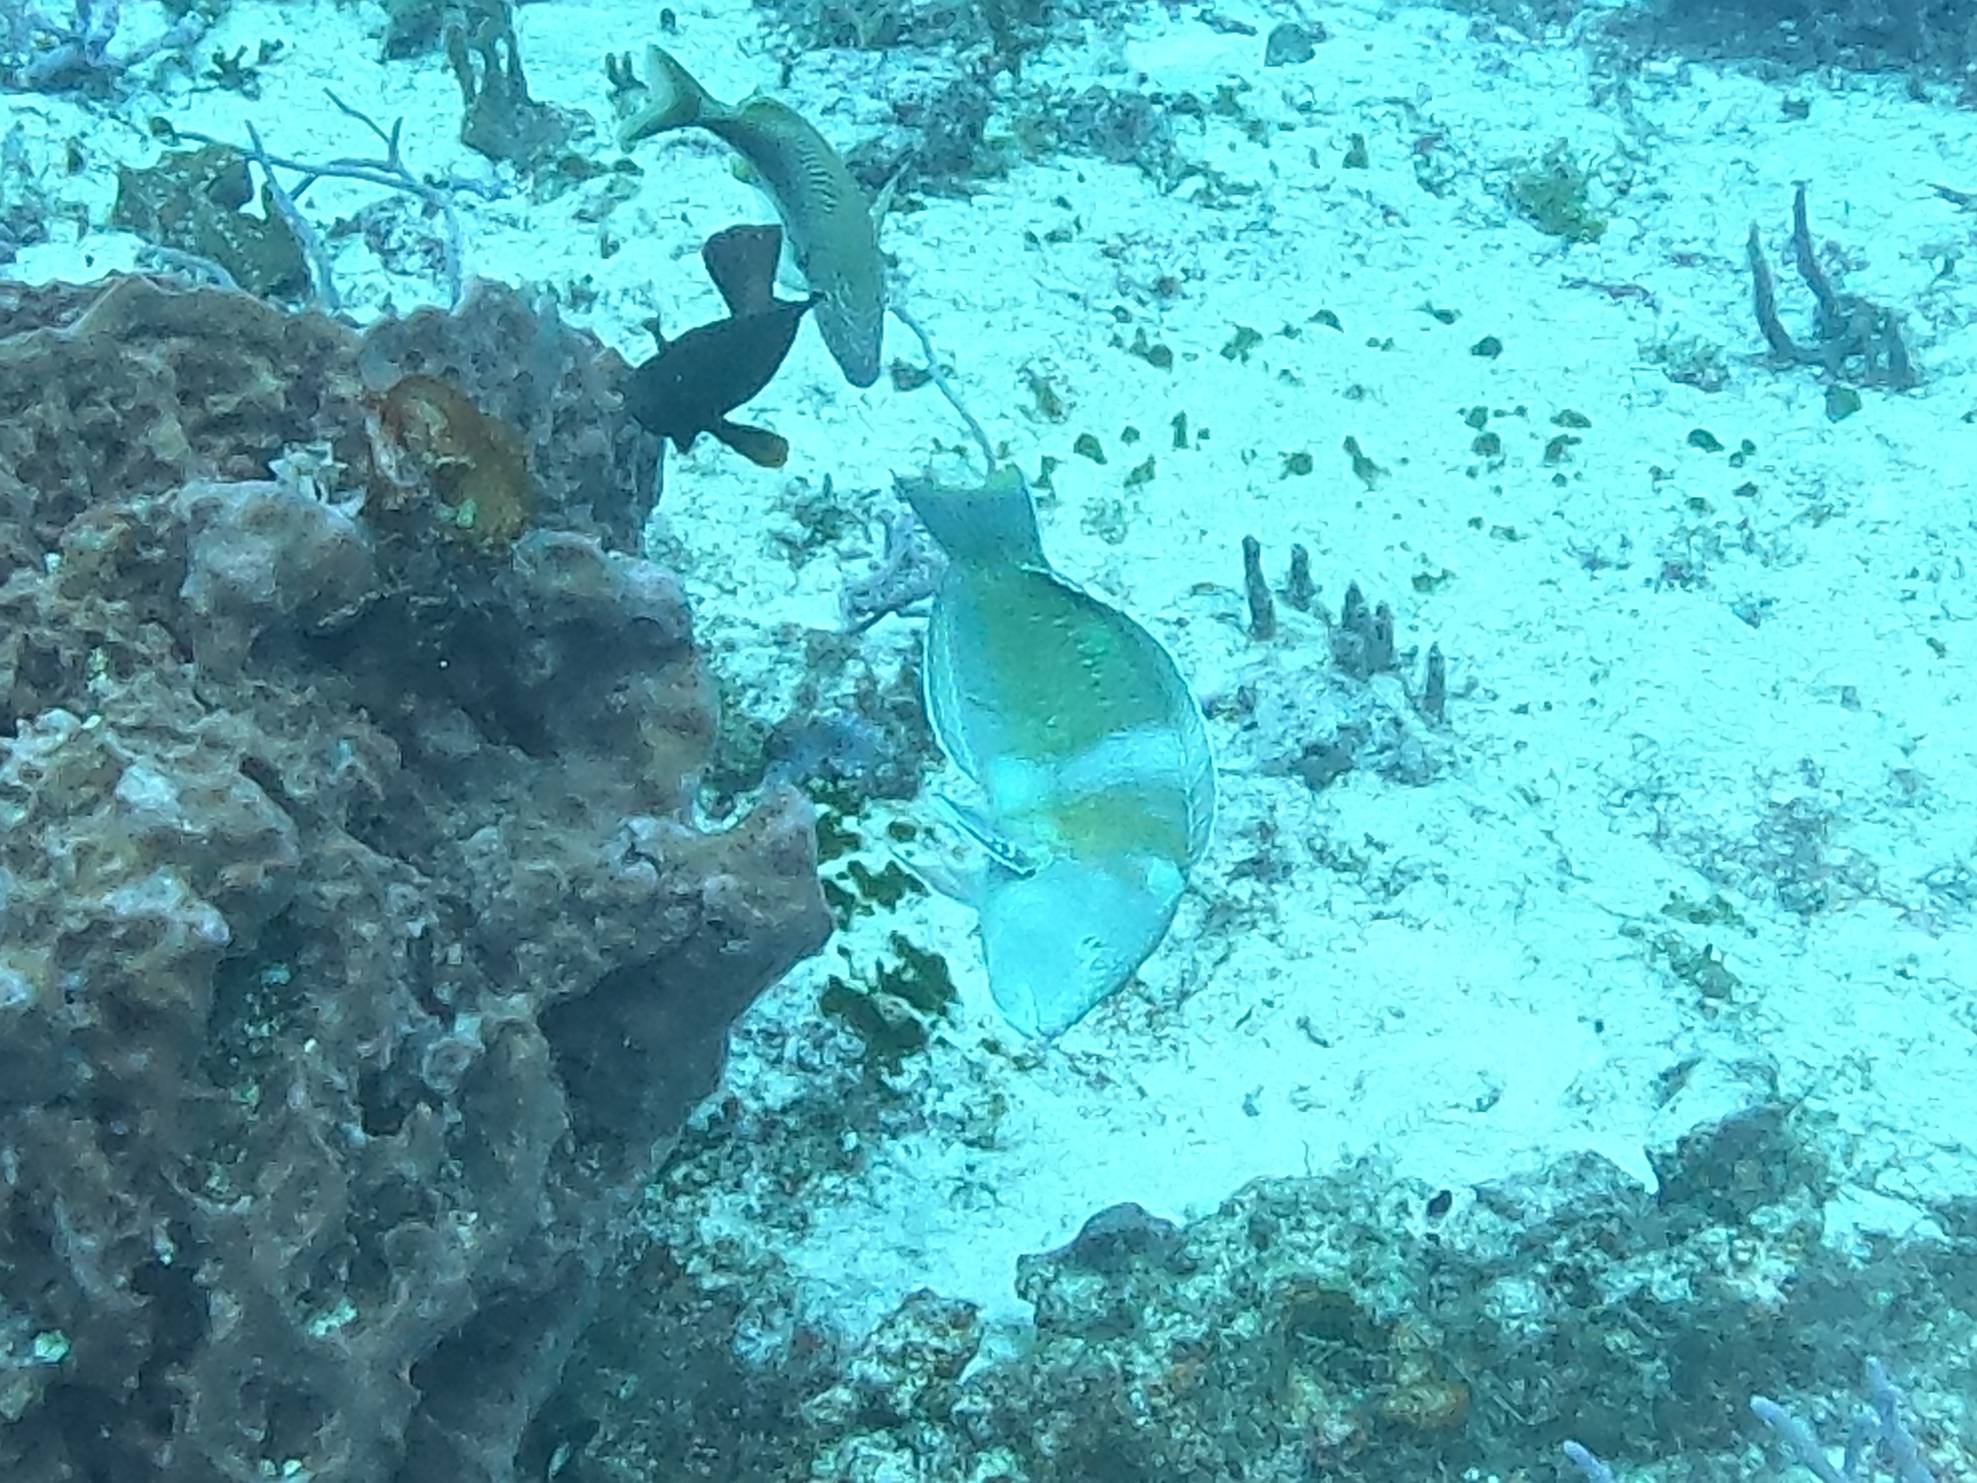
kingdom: Animalia
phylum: Chordata
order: Perciformes
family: Labridae
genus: Halichoeres
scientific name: Halichoeres radiatus
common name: Puddingwife
